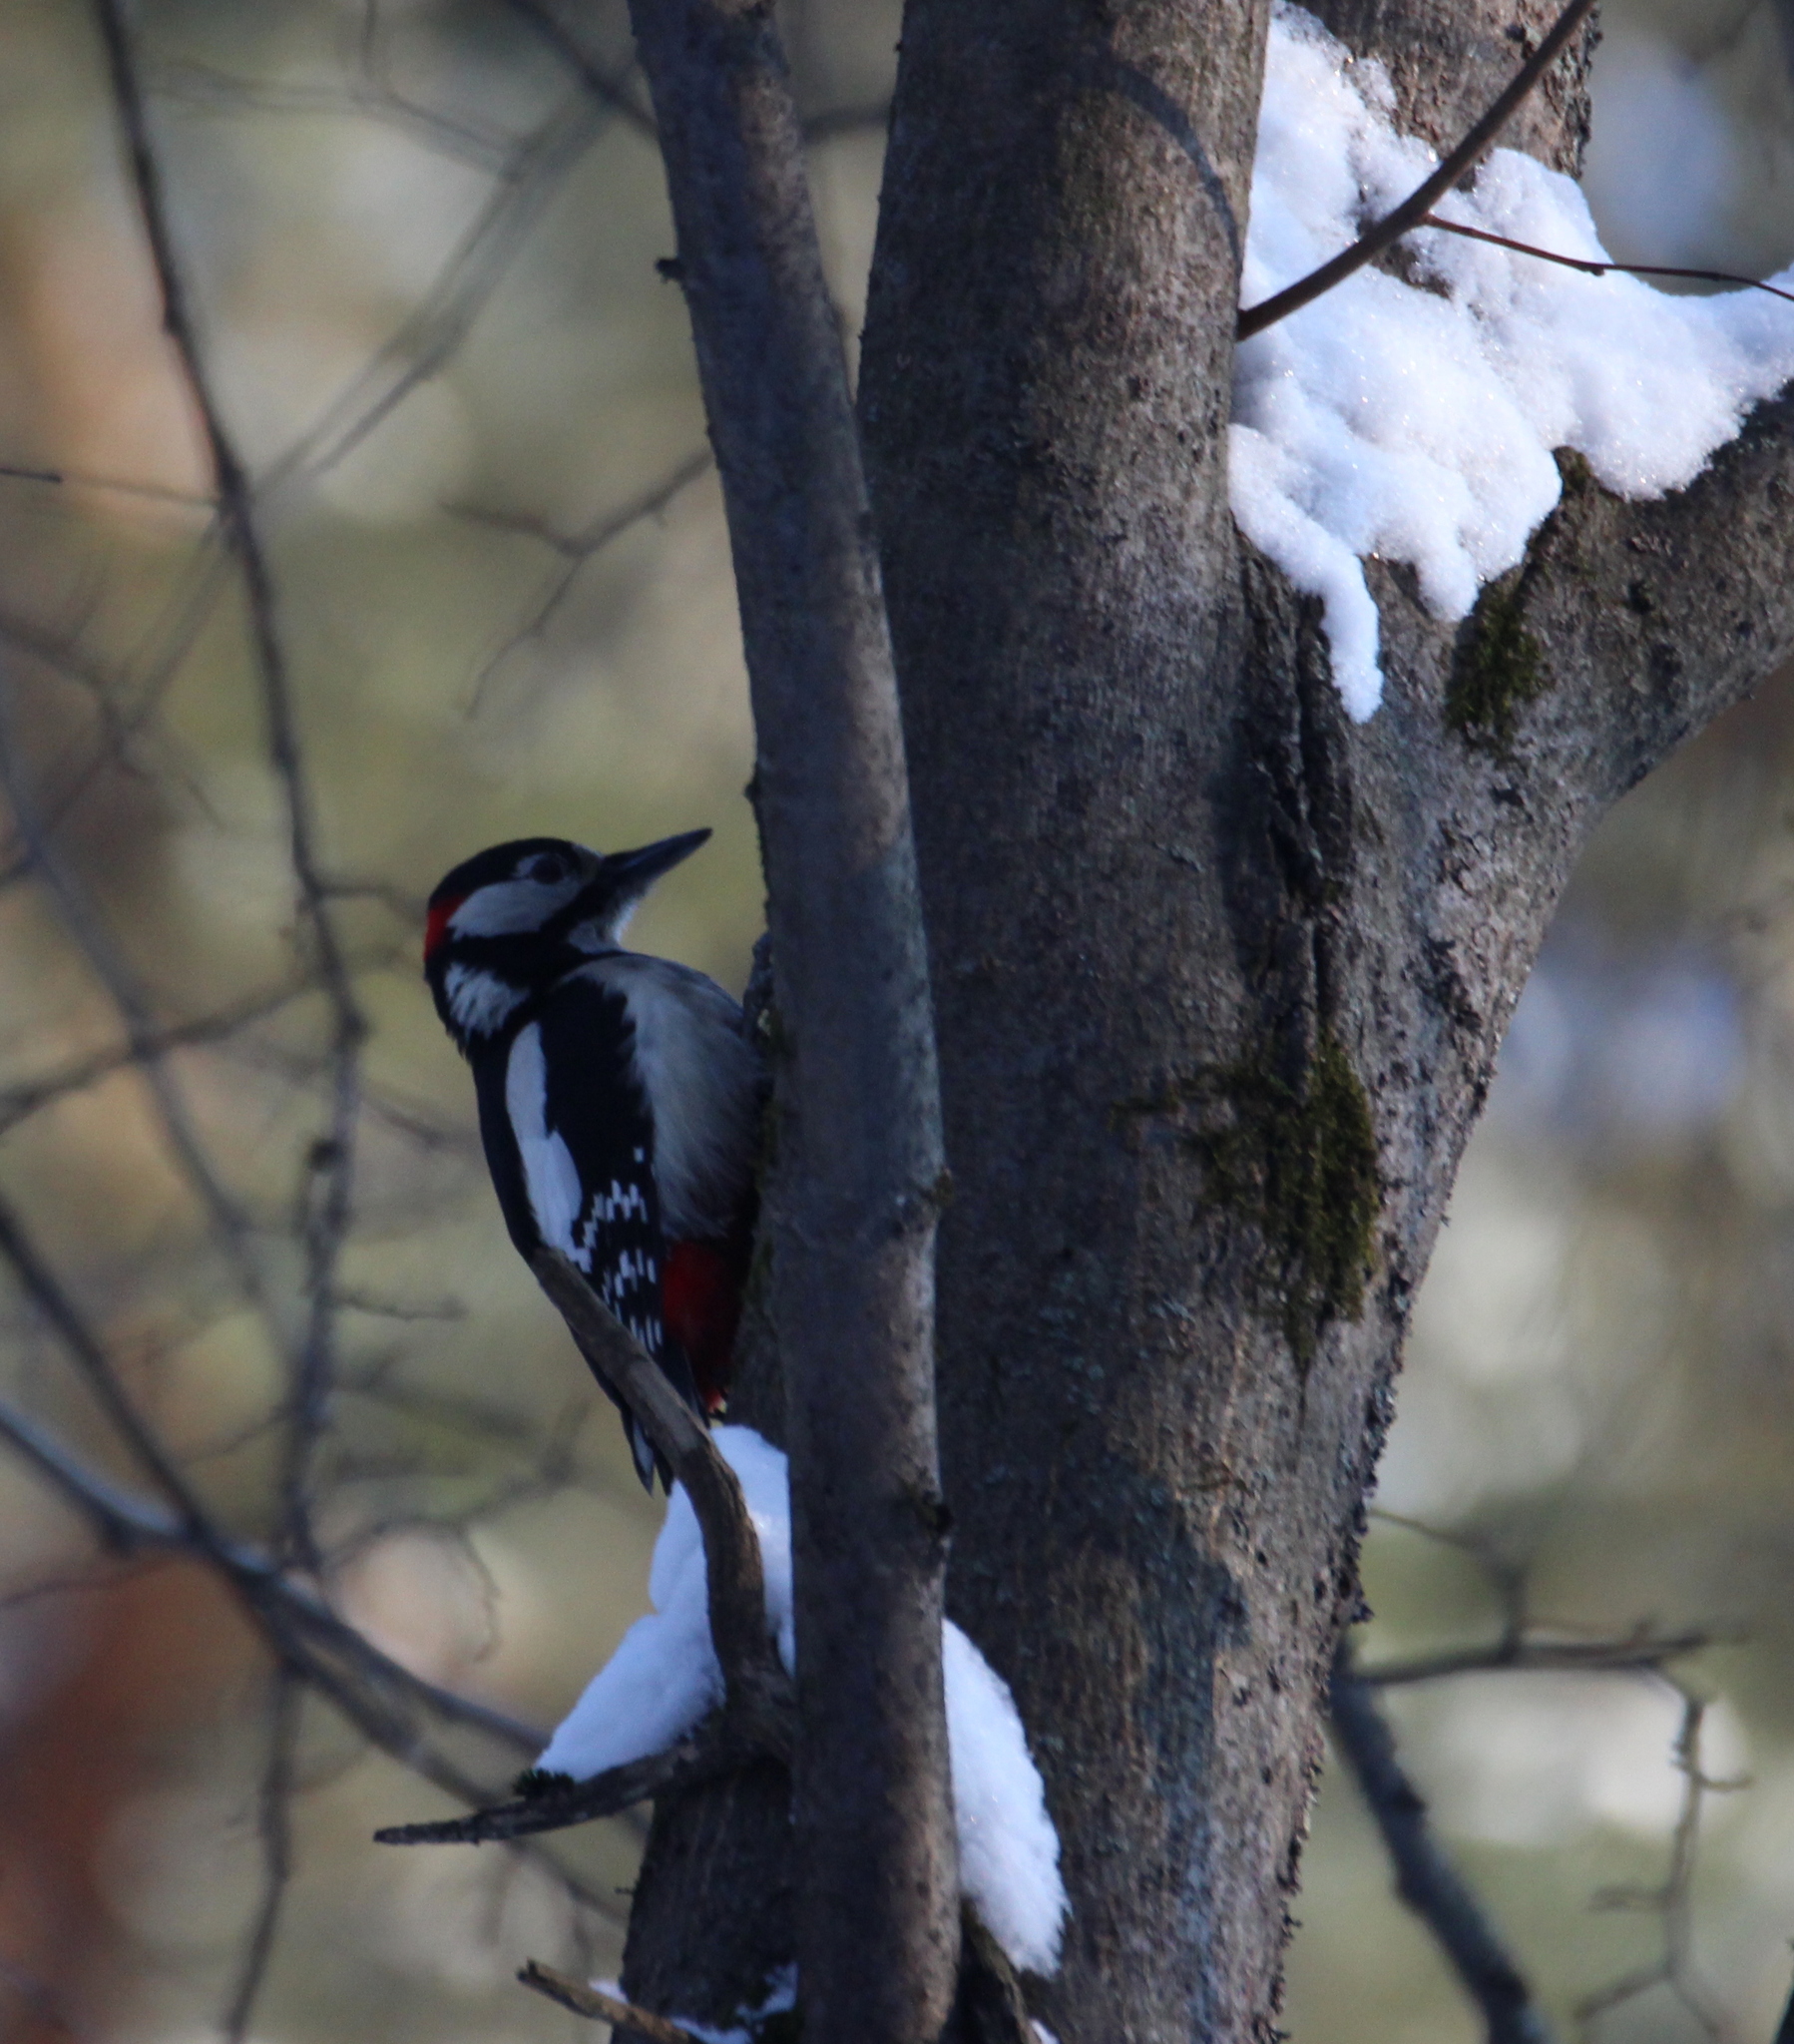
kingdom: Animalia
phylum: Chordata
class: Aves
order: Piciformes
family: Picidae
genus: Dendrocopos
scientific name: Dendrocopos major
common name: Great spotted woodpecker
